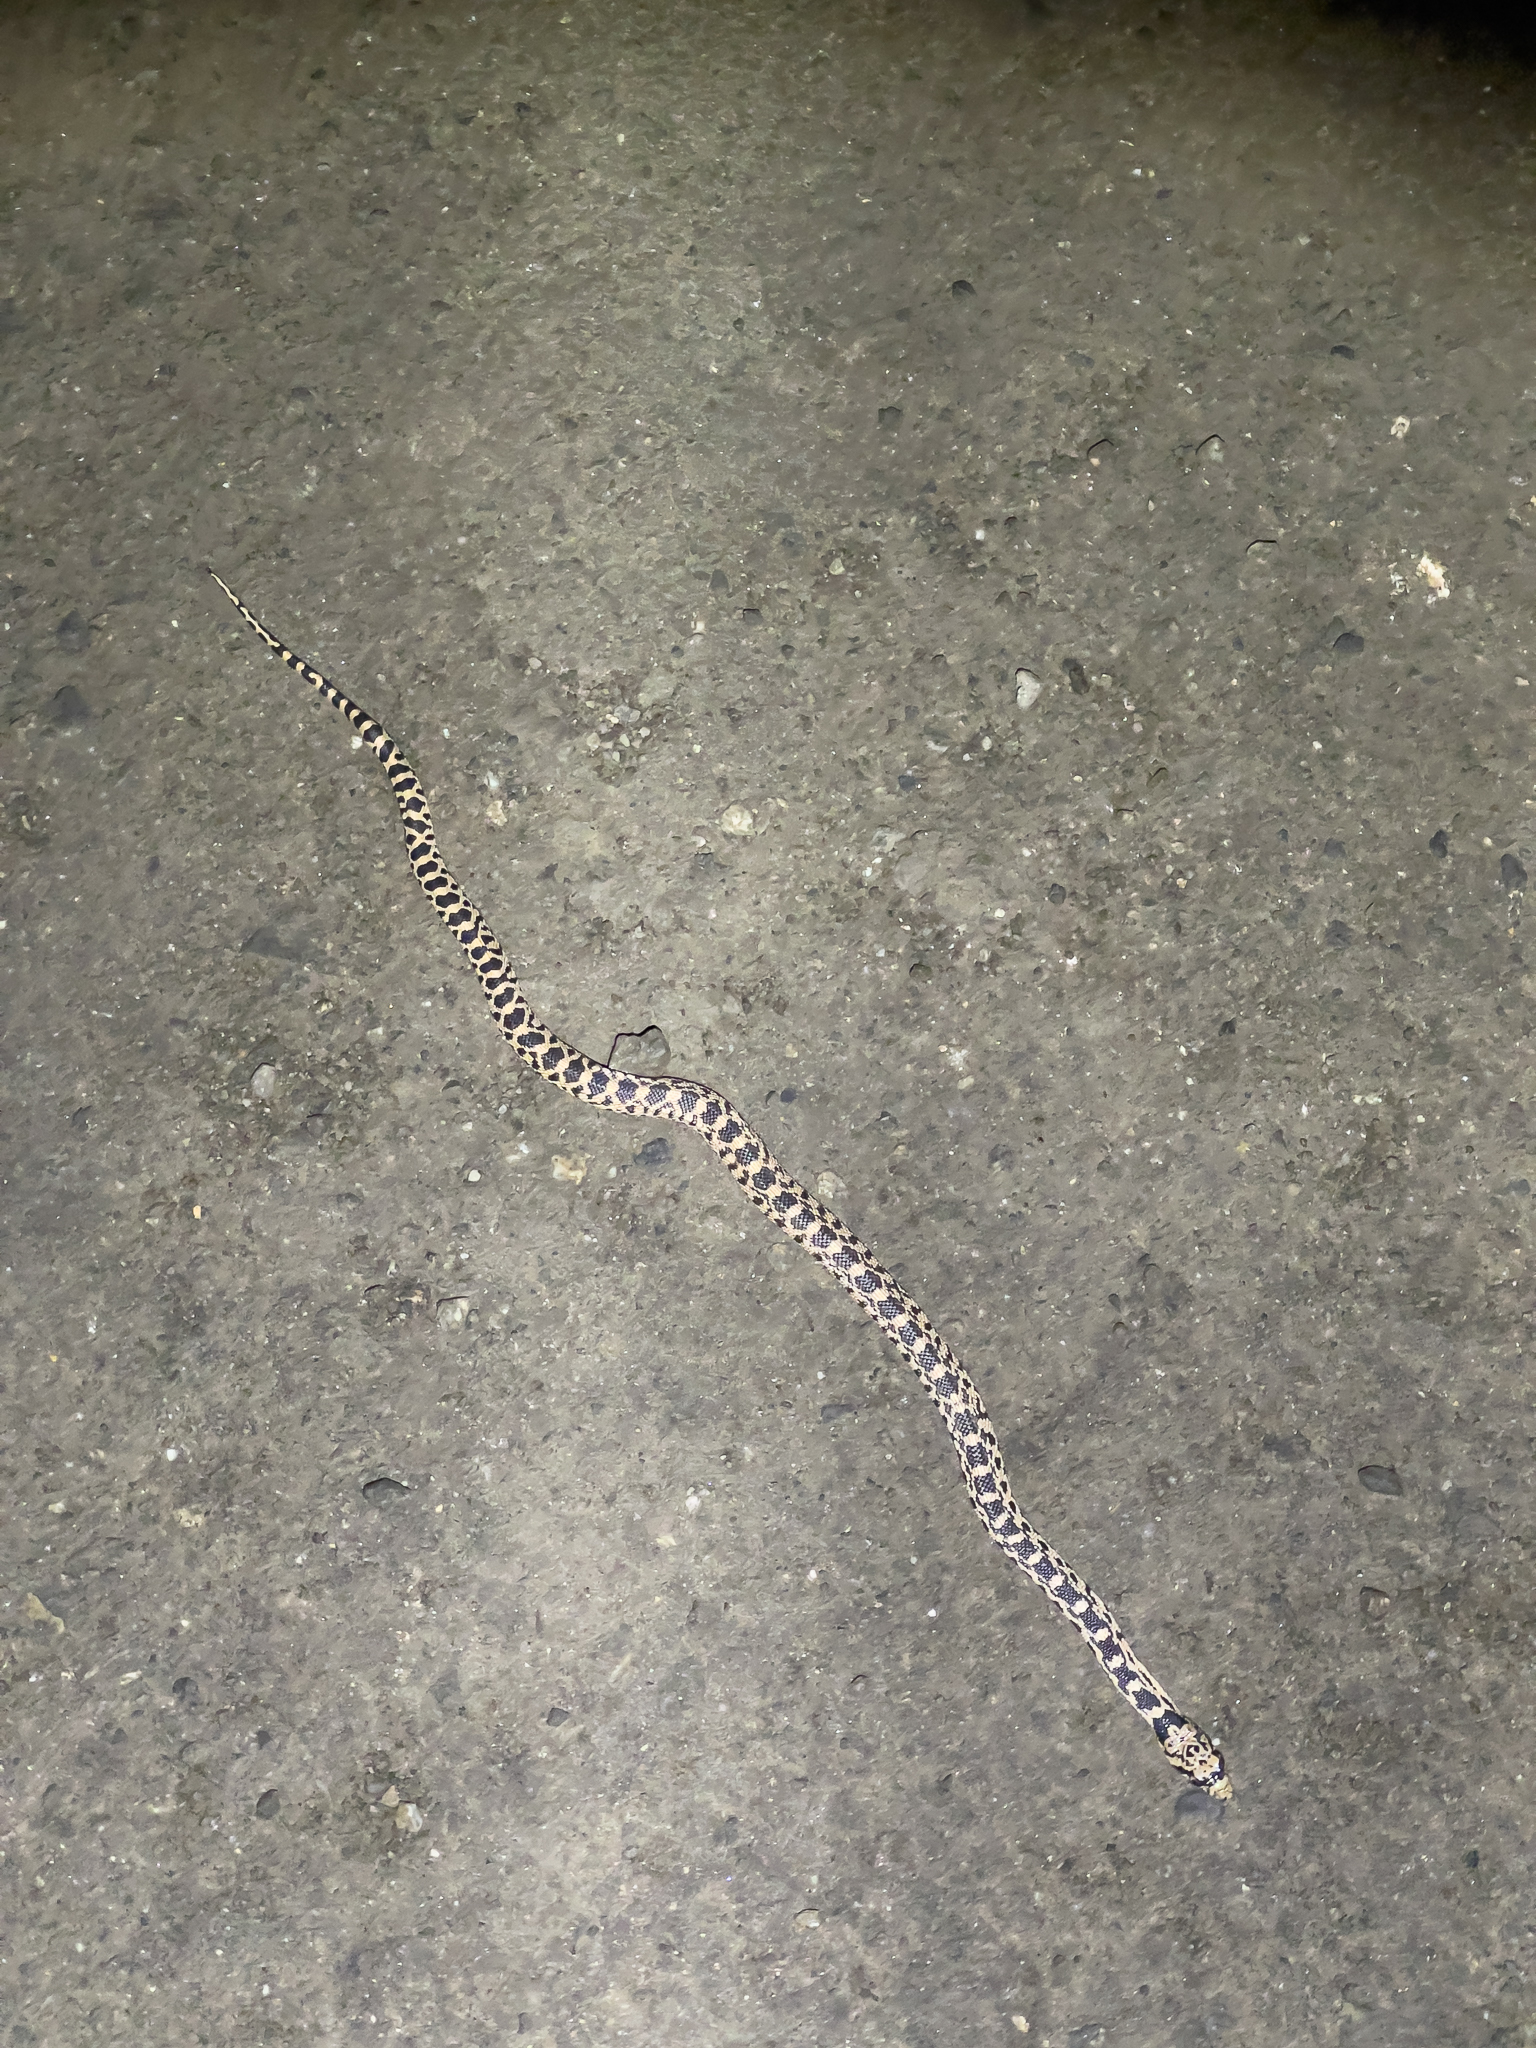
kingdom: Animalia
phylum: Chordata
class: Squamata
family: Colubridae
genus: Pituophis
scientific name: Pituophis catenifer
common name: Gopher snake
